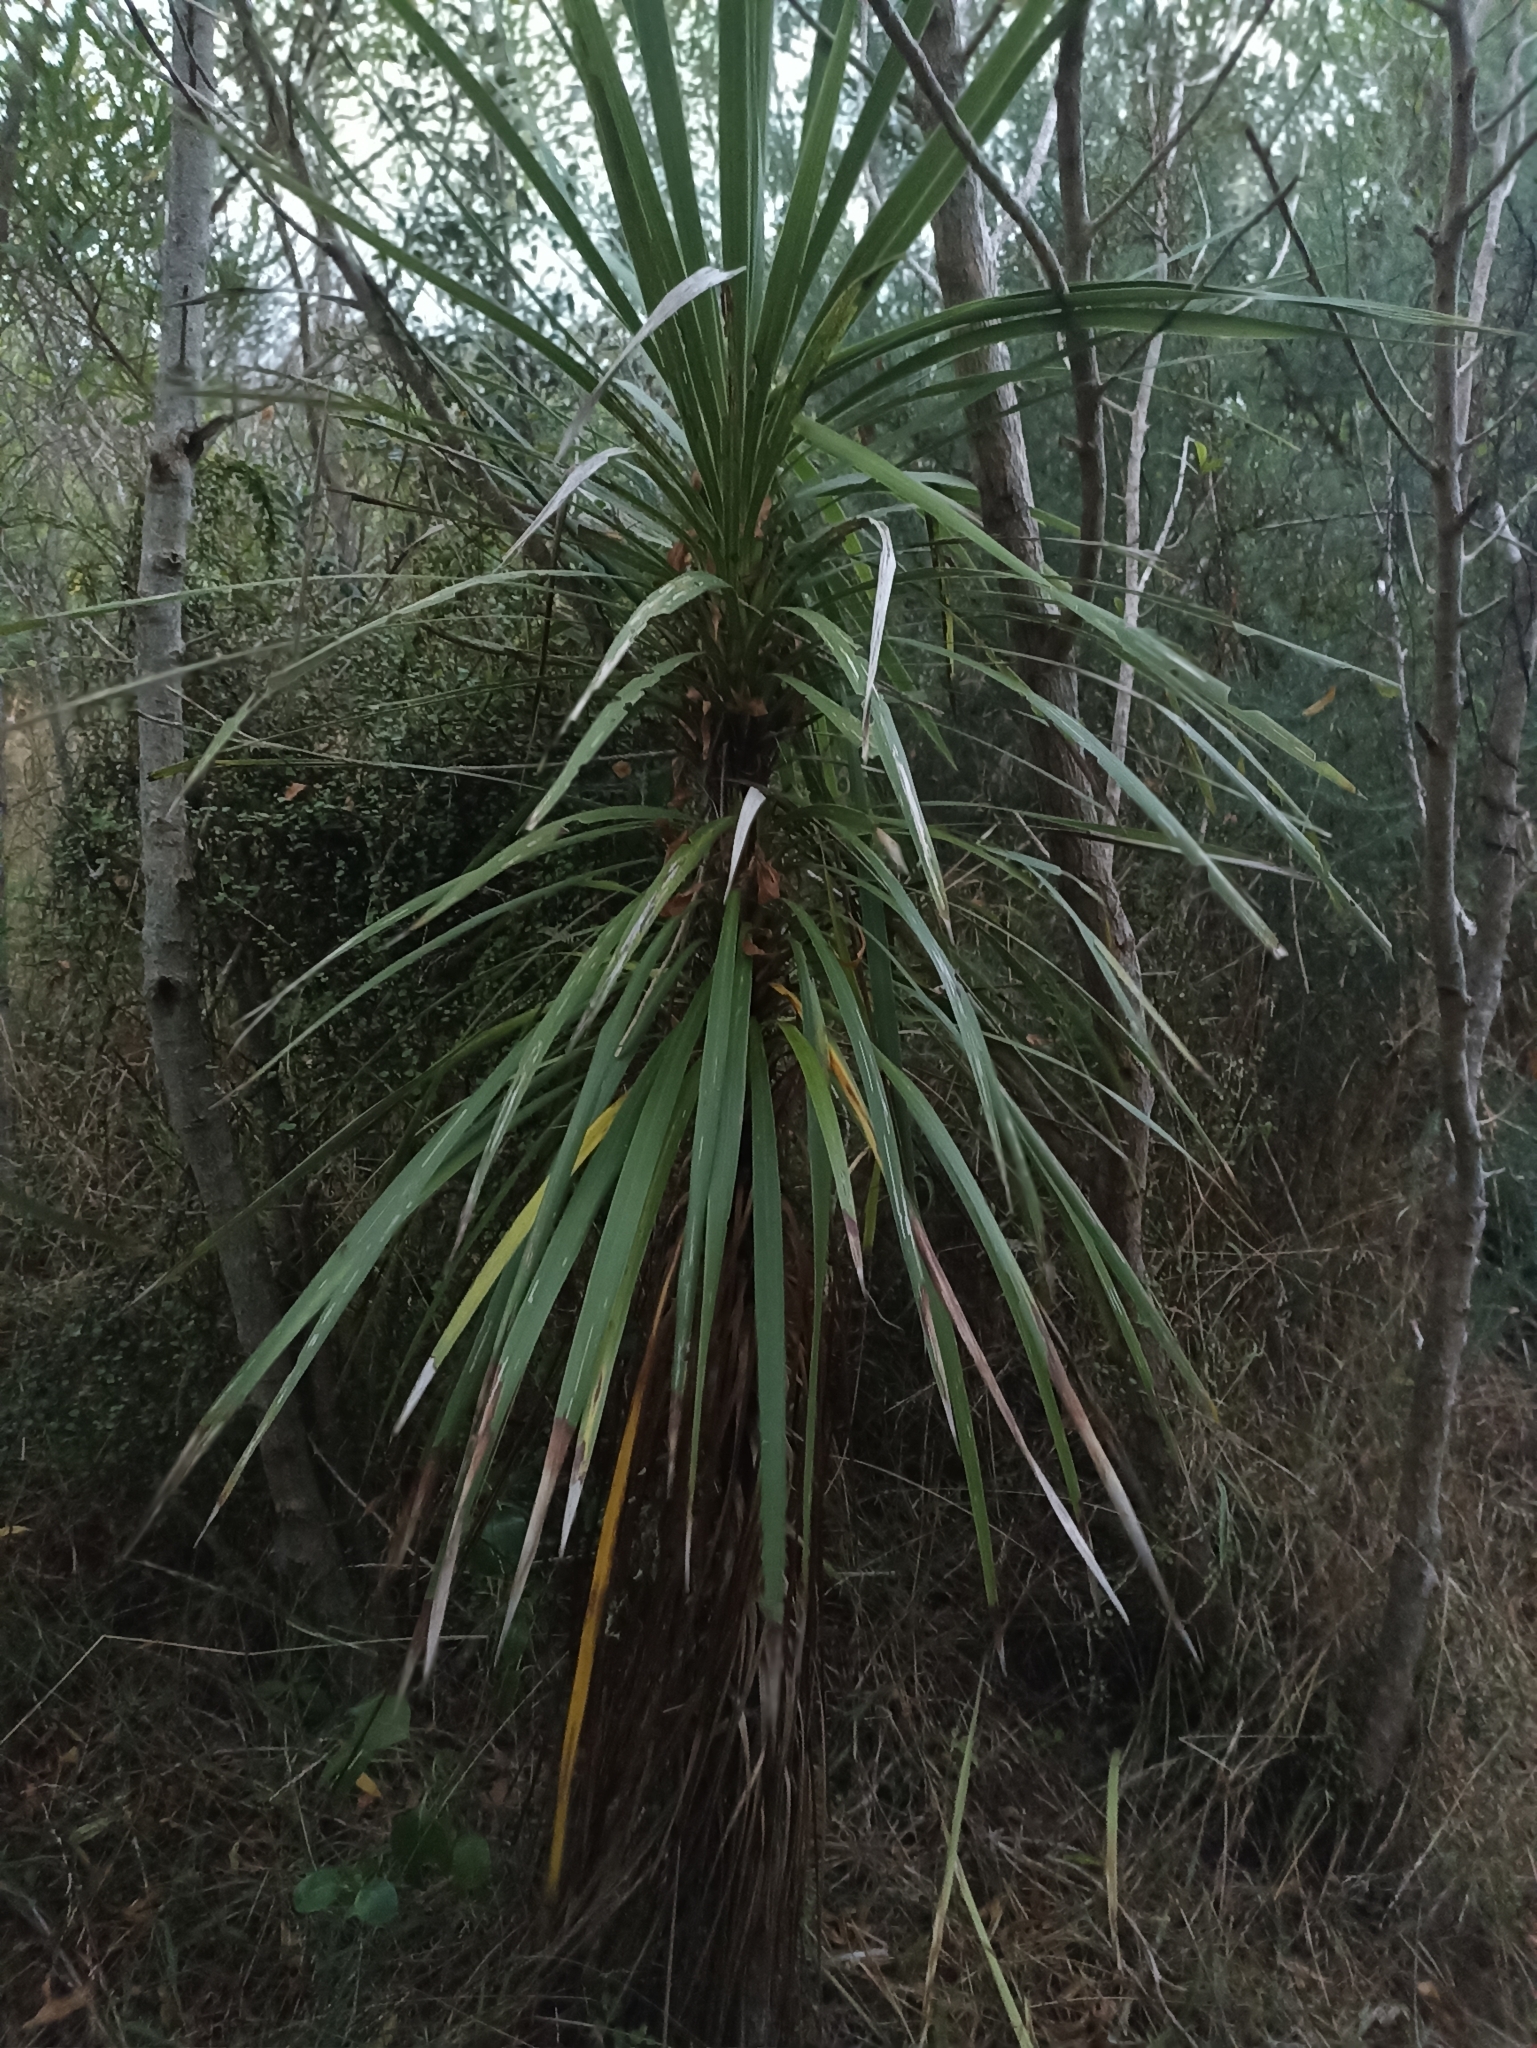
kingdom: Plantae
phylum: Tracheophyta
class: Liliopsida
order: Asparagales
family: Asparagaceae
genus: Cordyline
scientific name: Cordyline australis
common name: Cabbage-palm
